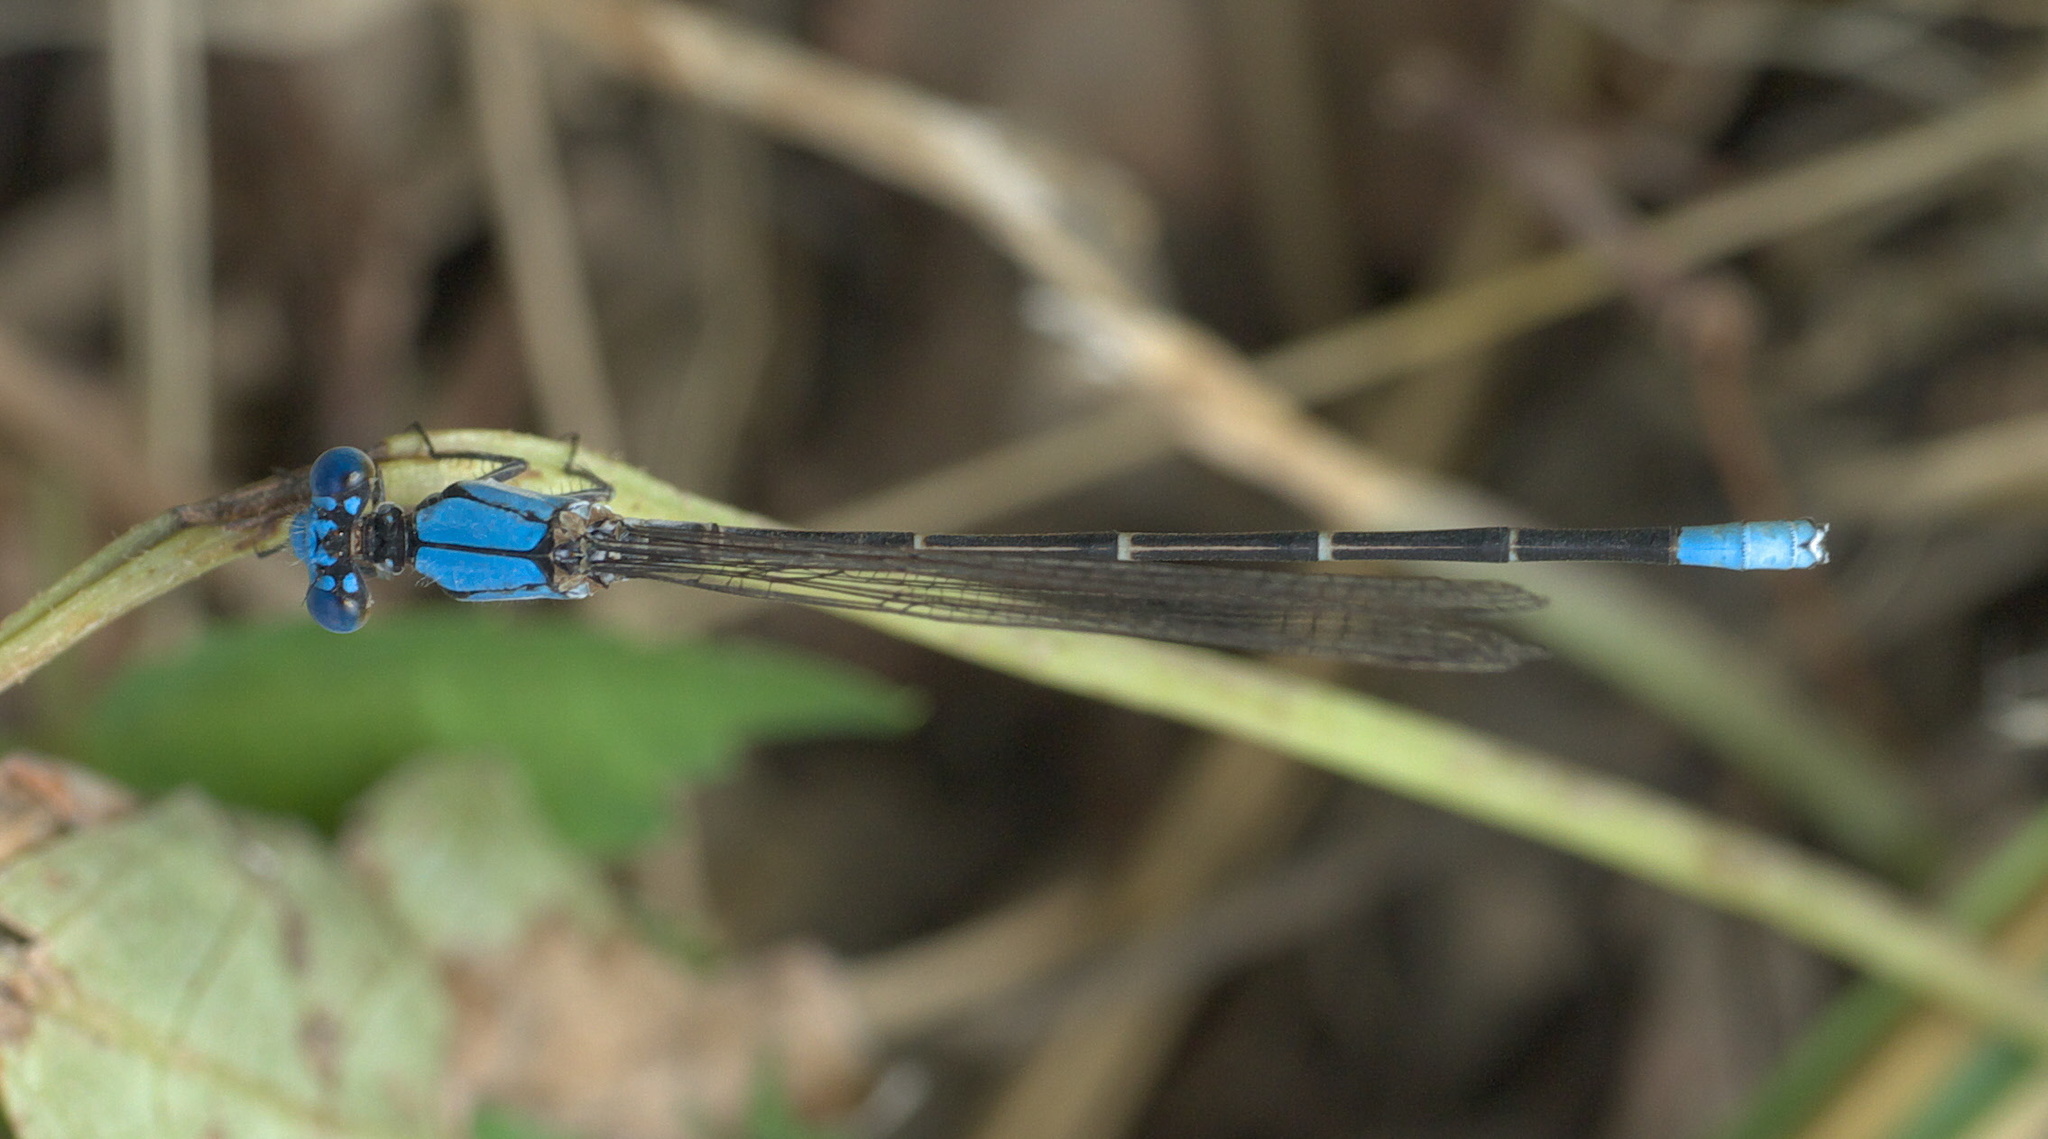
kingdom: Animalia
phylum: Arthropoda
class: Insecta
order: Odonata
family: Coenagrionidae
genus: Argia
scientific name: Argia apicalis
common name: Blue-fronted dancer
